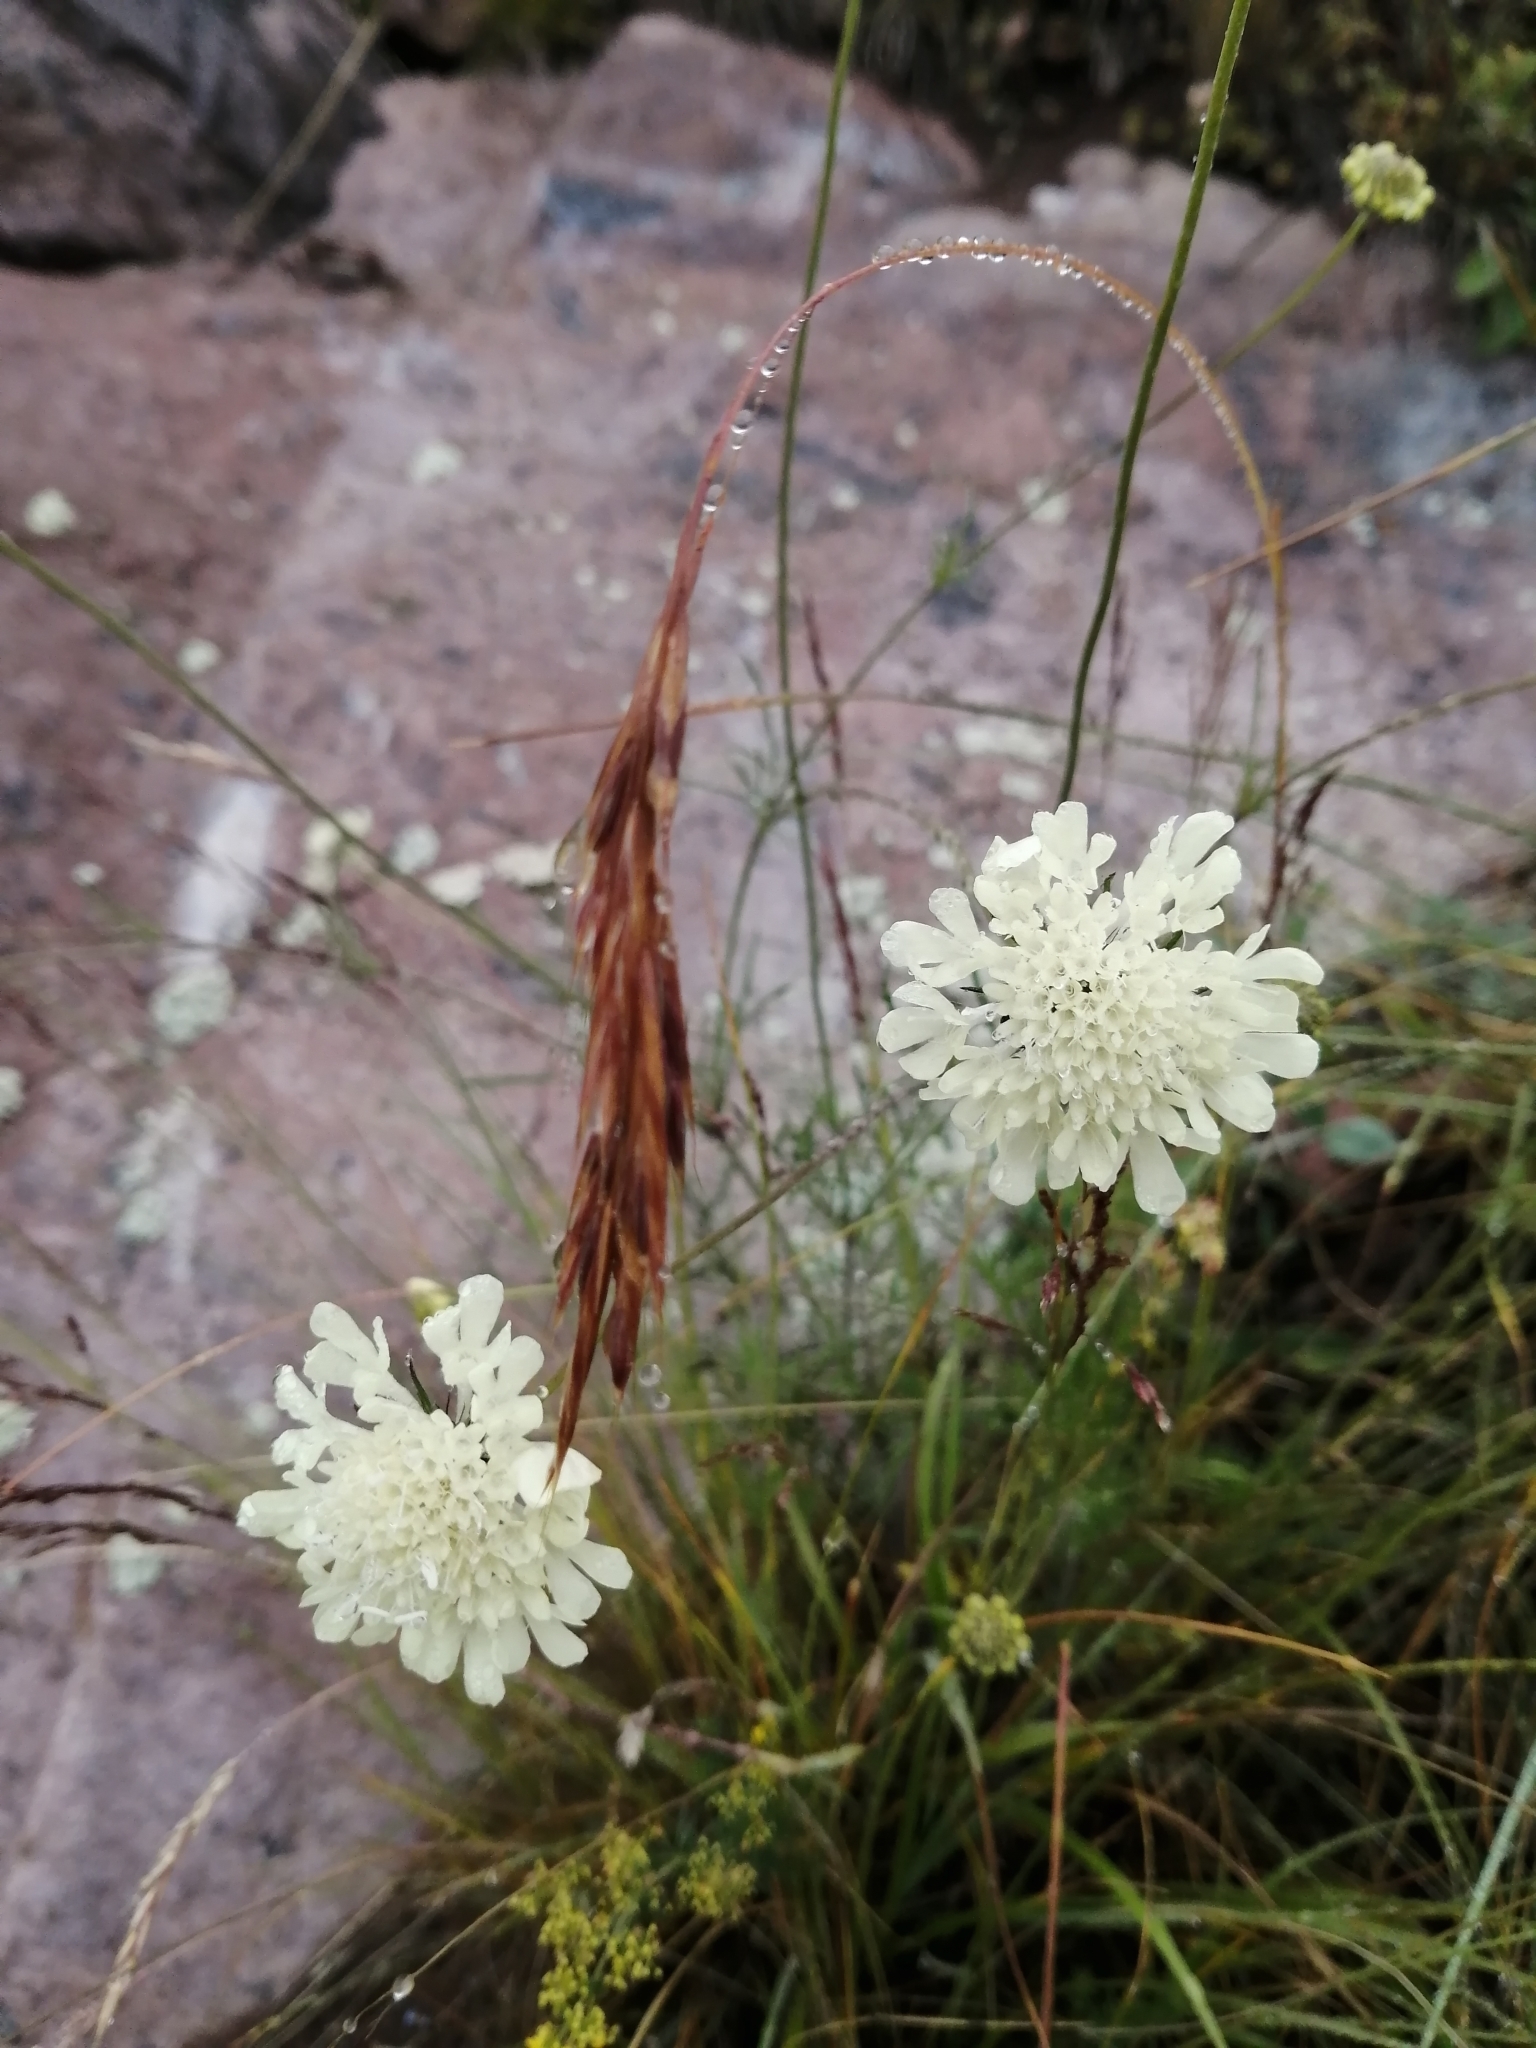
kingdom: Plantae
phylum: Tracheophyta
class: Magnoliopsida
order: Dipsacales
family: Caprifoliaceae
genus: Scabiosa
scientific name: Scabiosa ochroleuca
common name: Cream pincushions
